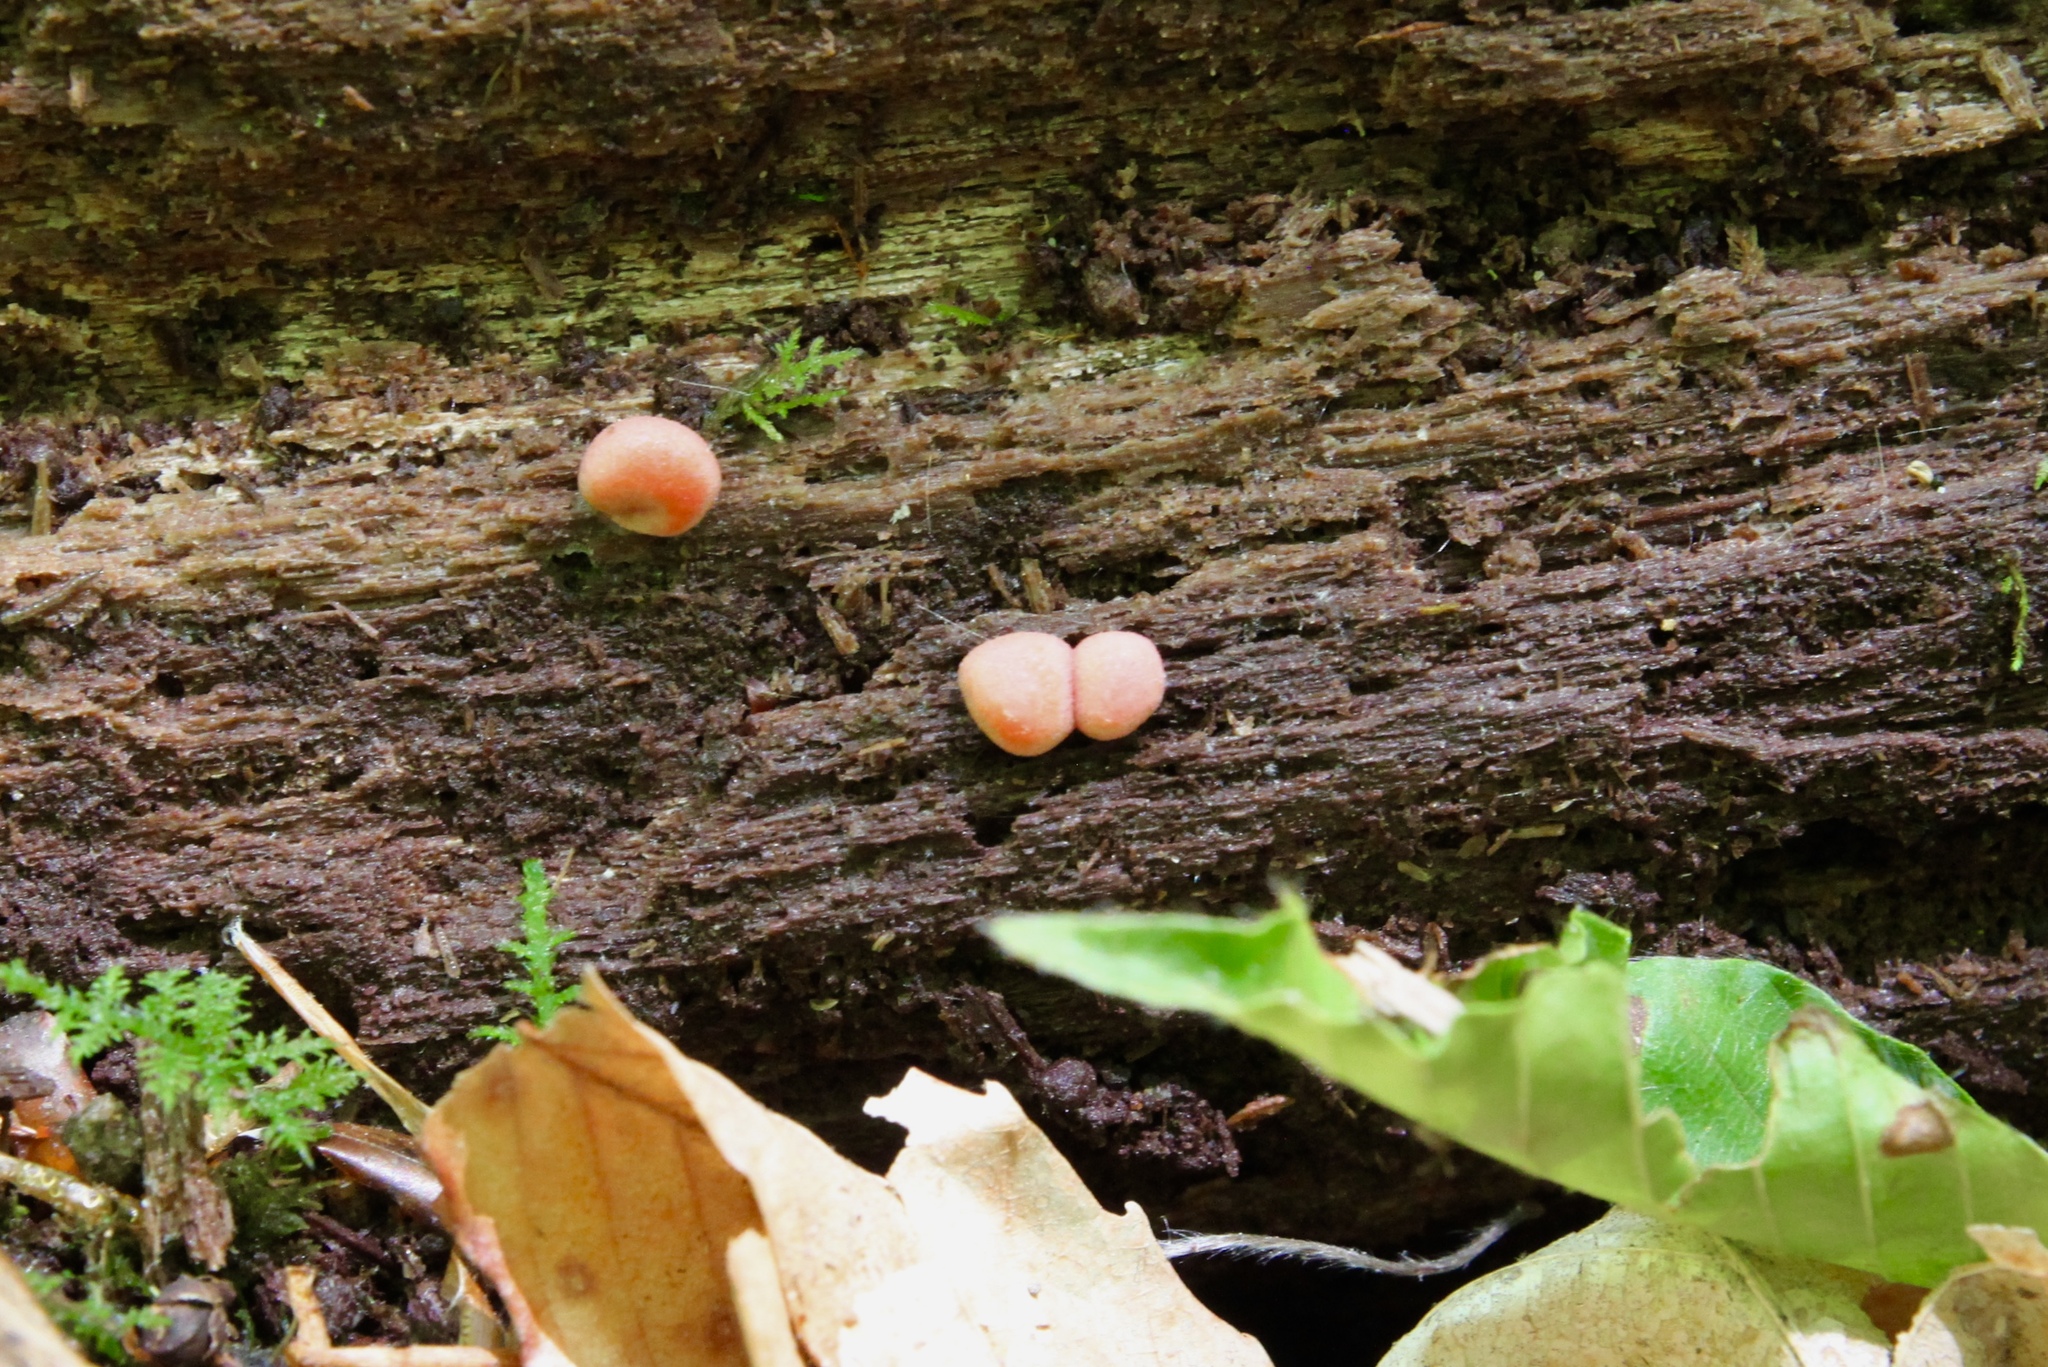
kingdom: Protozoa
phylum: Mycetozoa
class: Myxomycetes
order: Cribrariales
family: Tubiferaceae
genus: Lycogala
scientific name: Lycogala epidendrum
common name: Wolf's milk
